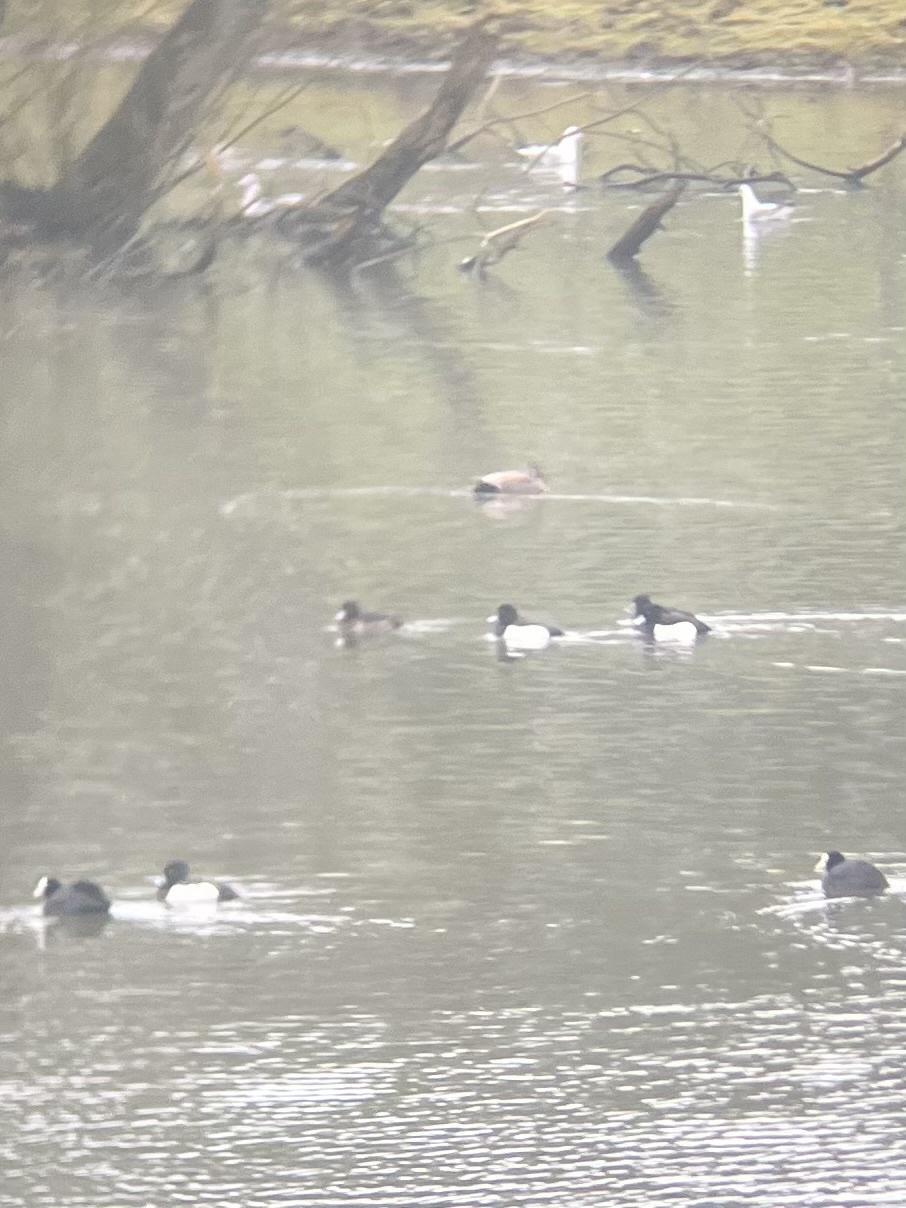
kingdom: Animalia
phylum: Chordata
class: Aves
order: Anseriformes
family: Anatidae
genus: Aythya
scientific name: Aythya fuligula
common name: Tufted duck
